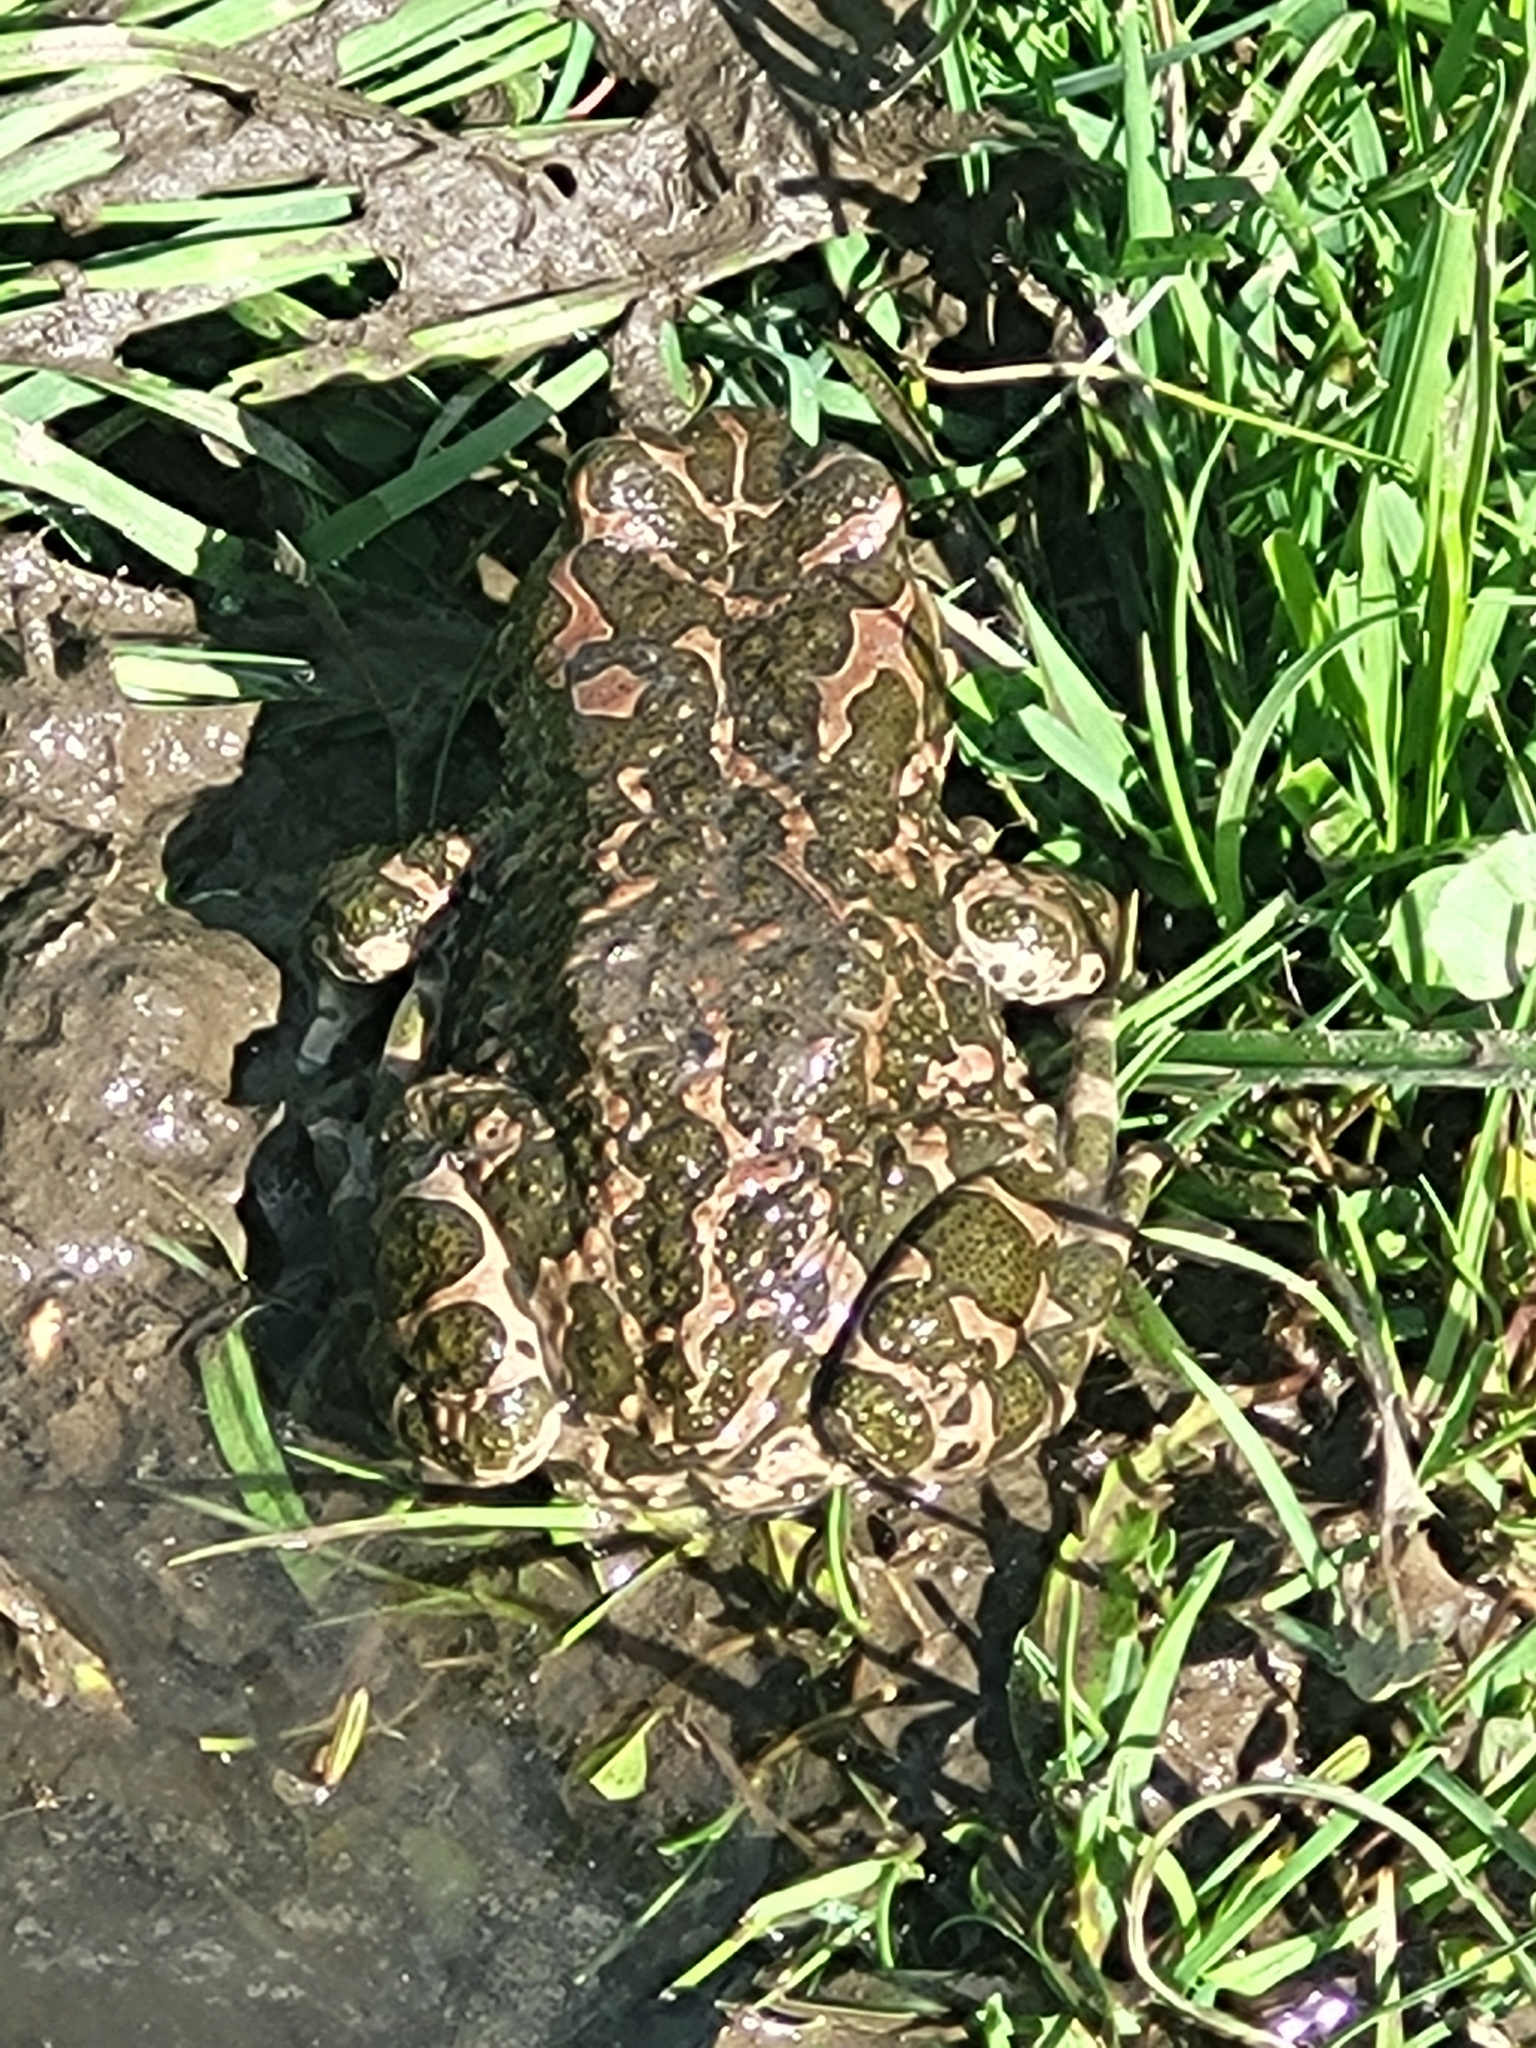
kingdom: Animalia
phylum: Chordata
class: Amphibia
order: Anura
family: Bufonidae
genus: Bufotes
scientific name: Bufotes viridis
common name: European green toad
